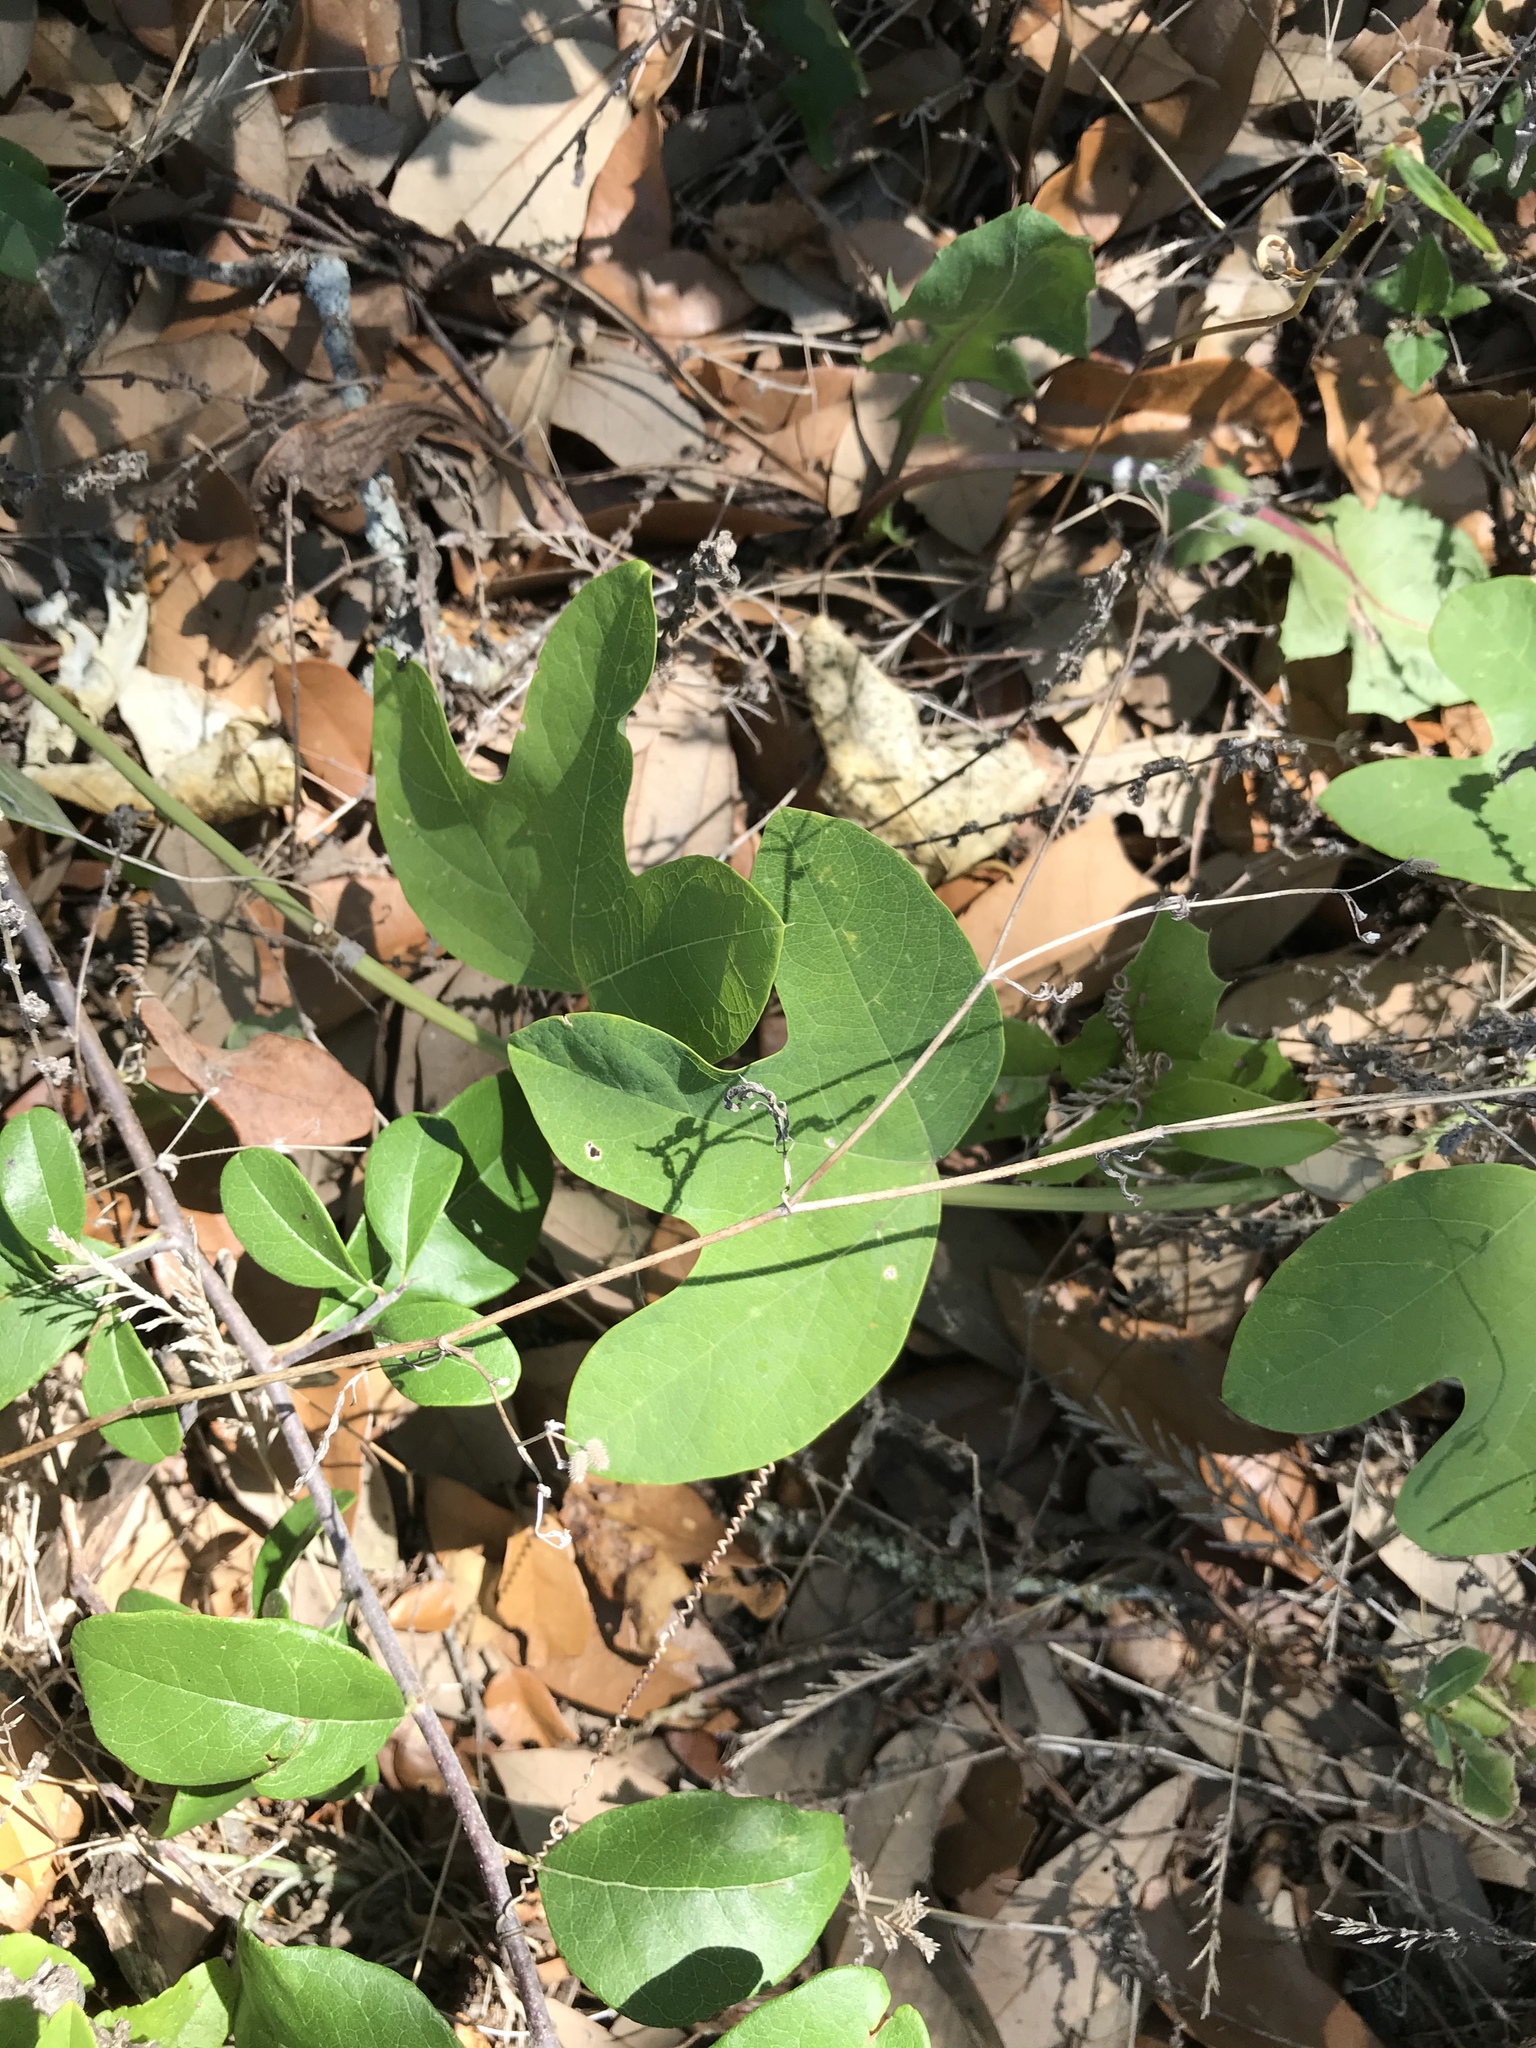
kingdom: Plantae
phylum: Tracheophyta
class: Magnoliopsida
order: Malpighiales
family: Passifloraceae
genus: Passiflora
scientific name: Passiflora affinis
